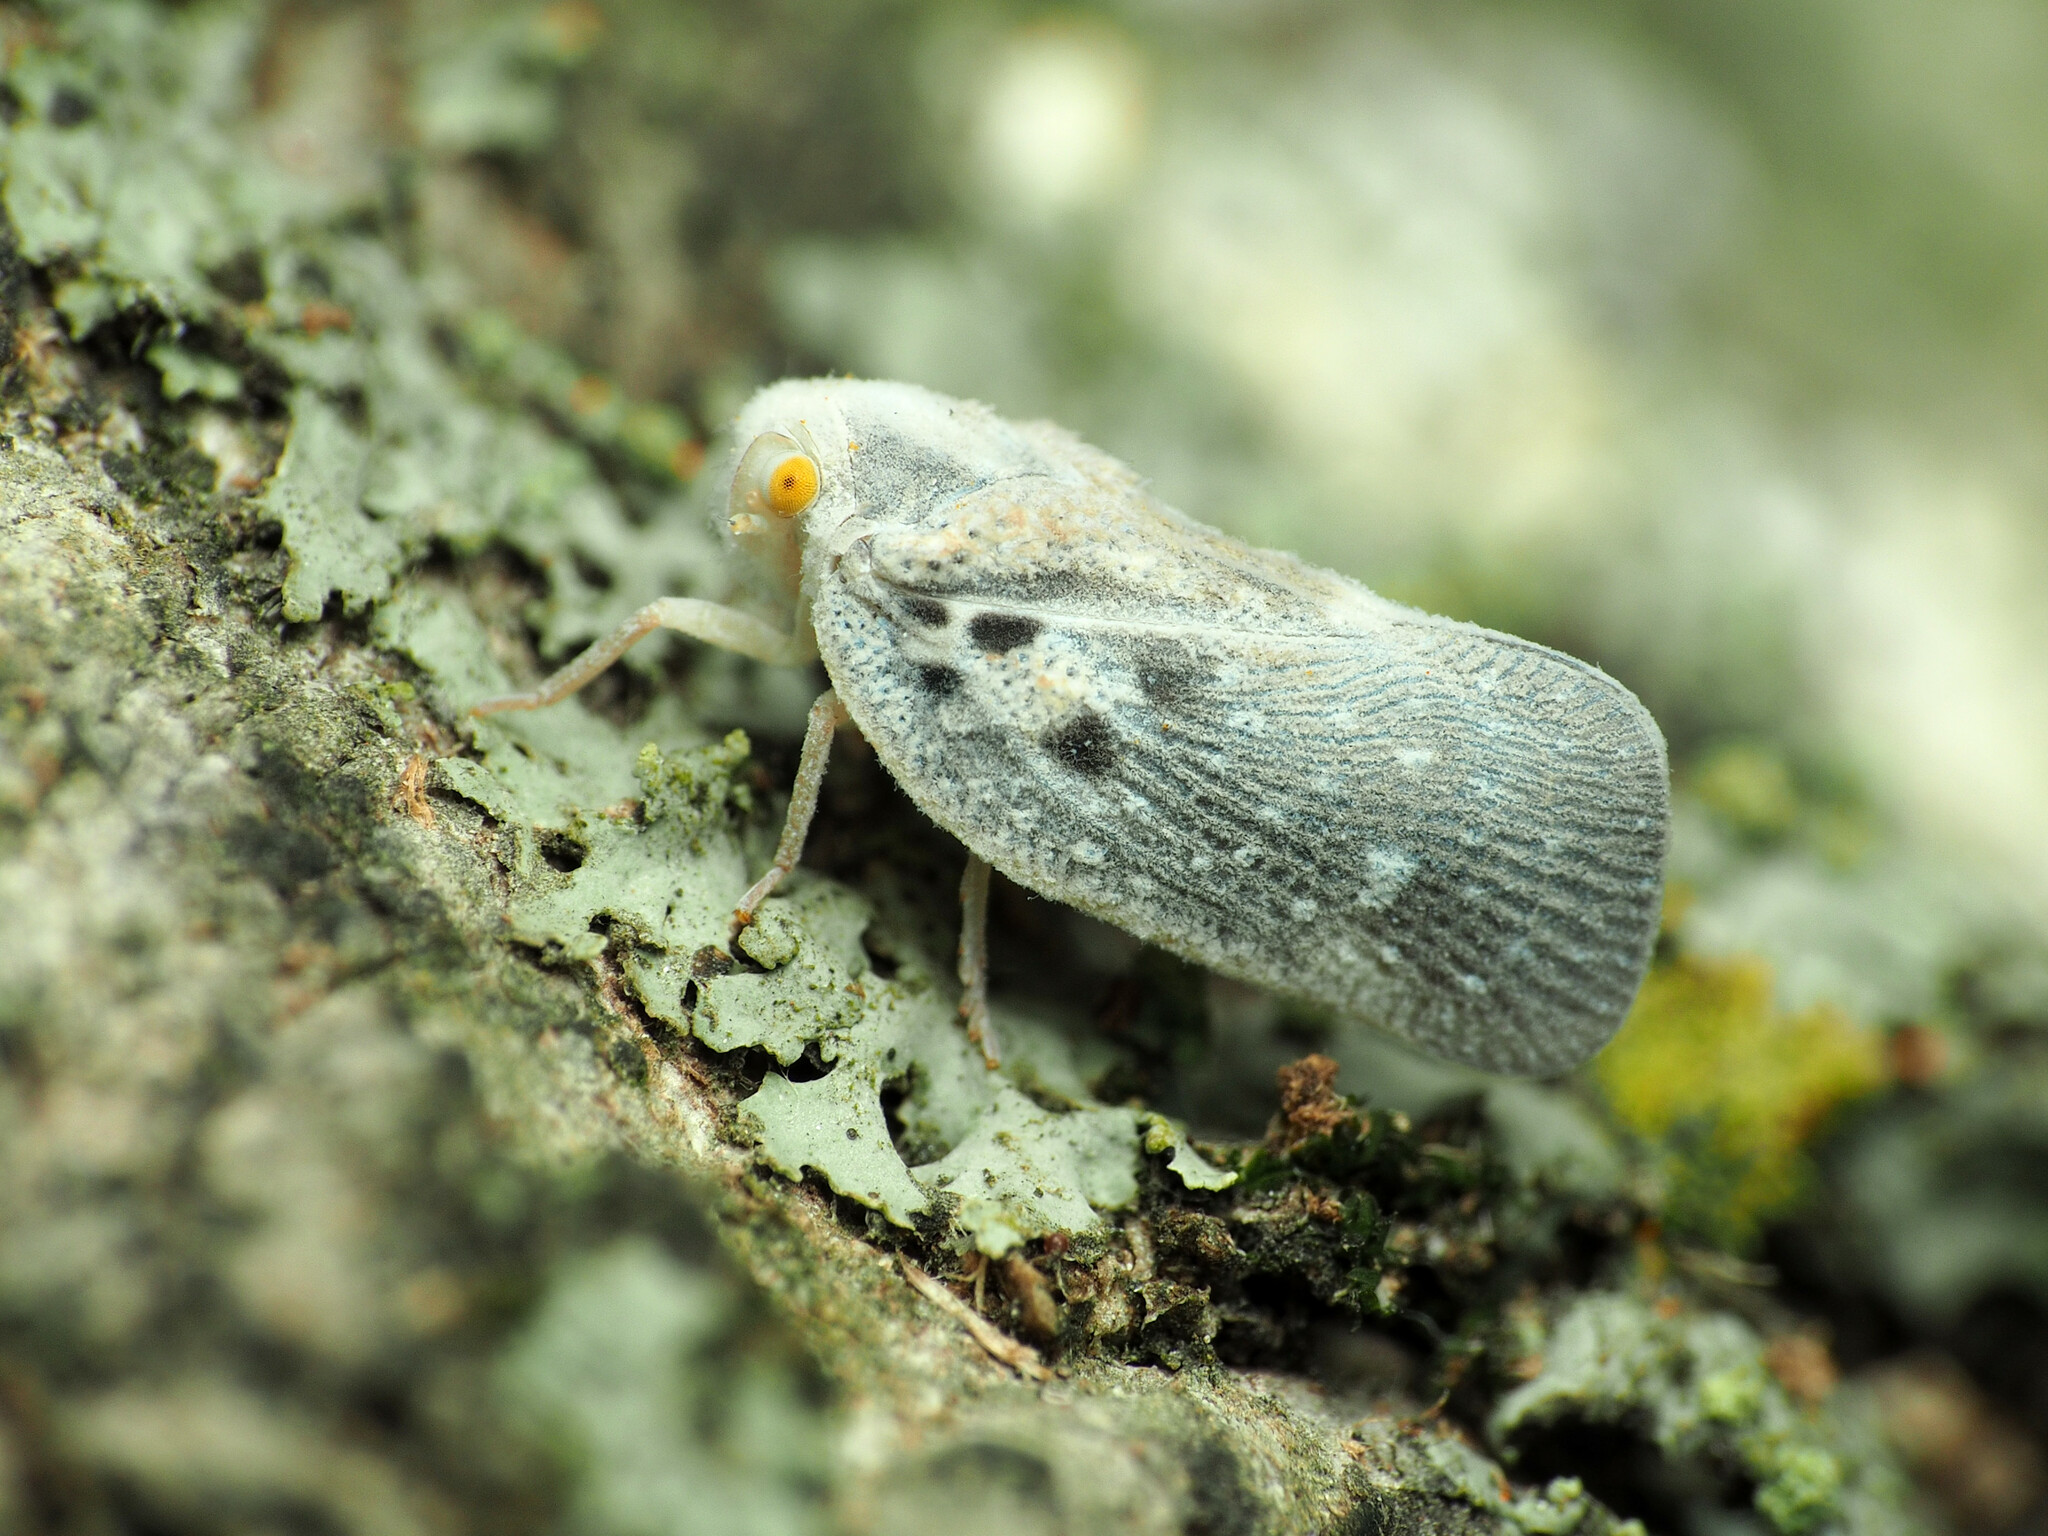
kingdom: Animalia
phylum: Arthropoda
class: Insecta
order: Hemiptera
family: Flatidae
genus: Metcalfa
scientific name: Metcalfa pruinosa
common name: Citrus flatid planthopper
